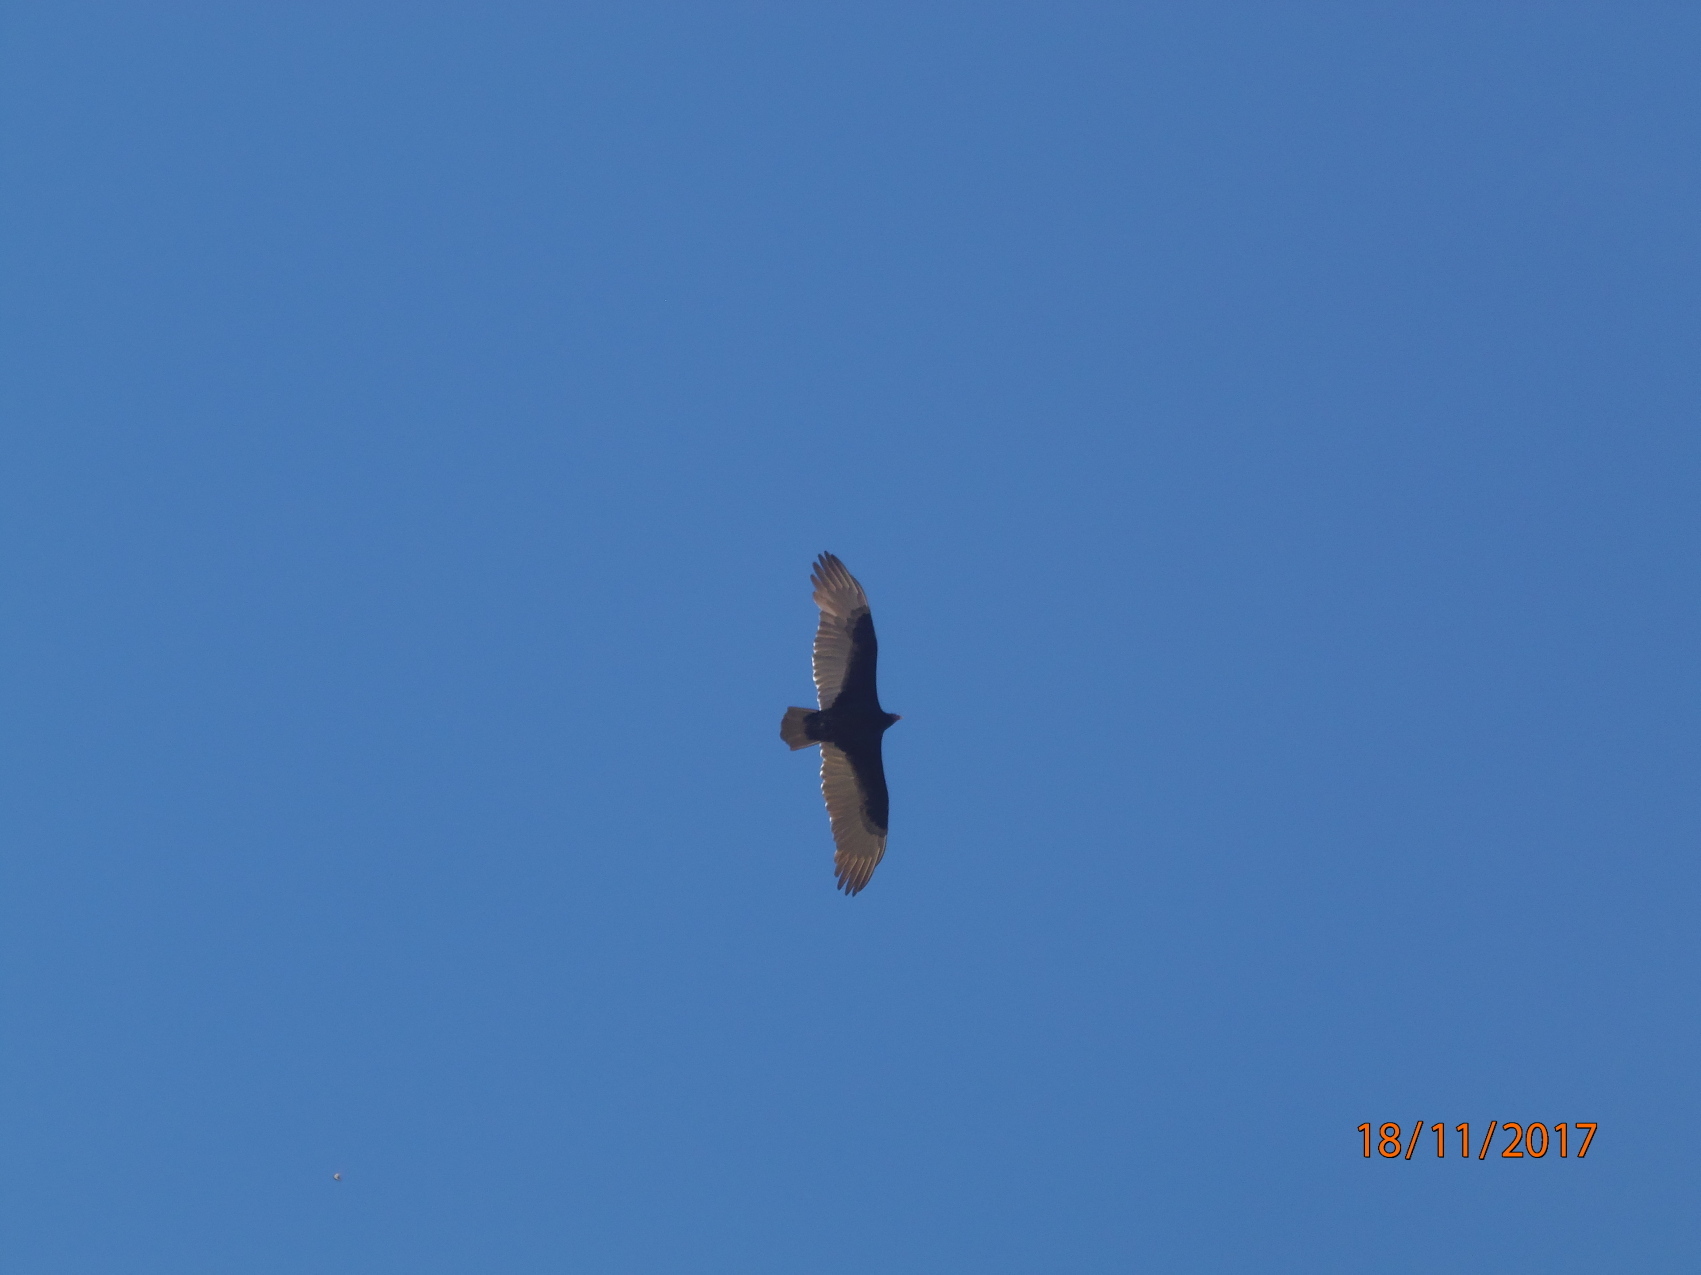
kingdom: Animalia
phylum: Chordata
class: Aves
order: Accipitriformes
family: Cathartidae
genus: Cathartes
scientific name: Cathartes aura
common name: Turkey vulture
